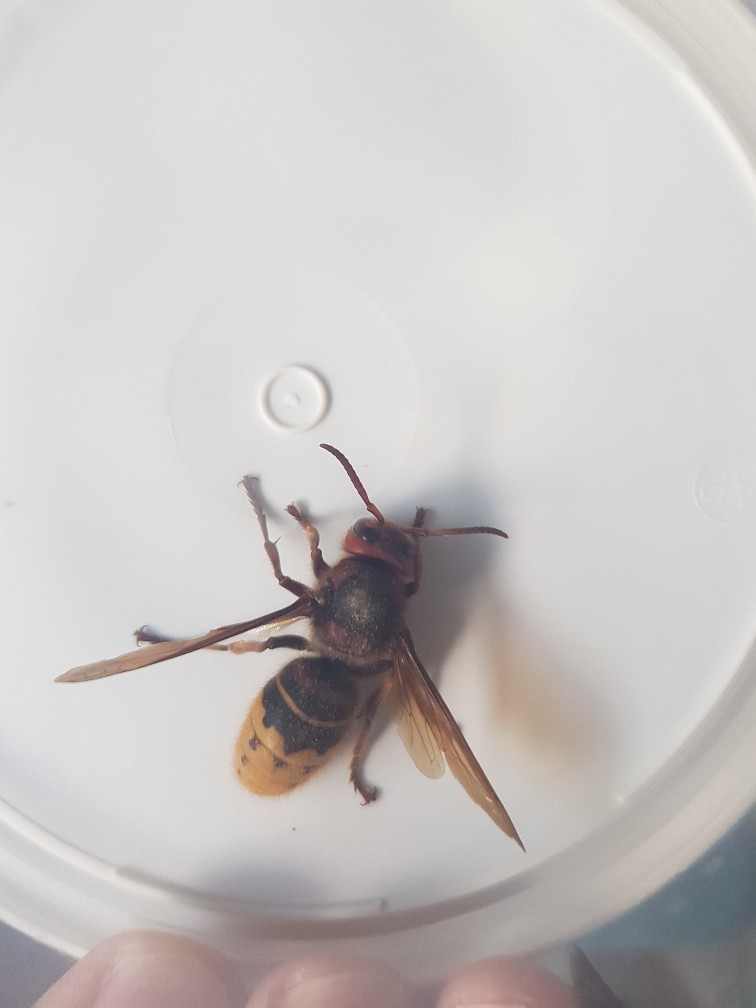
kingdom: Animalia
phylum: Arthropoda
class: Insecta
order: Hymenoptera
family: Vespidae
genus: Vespa
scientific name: Vespa crabro
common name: Hornet
